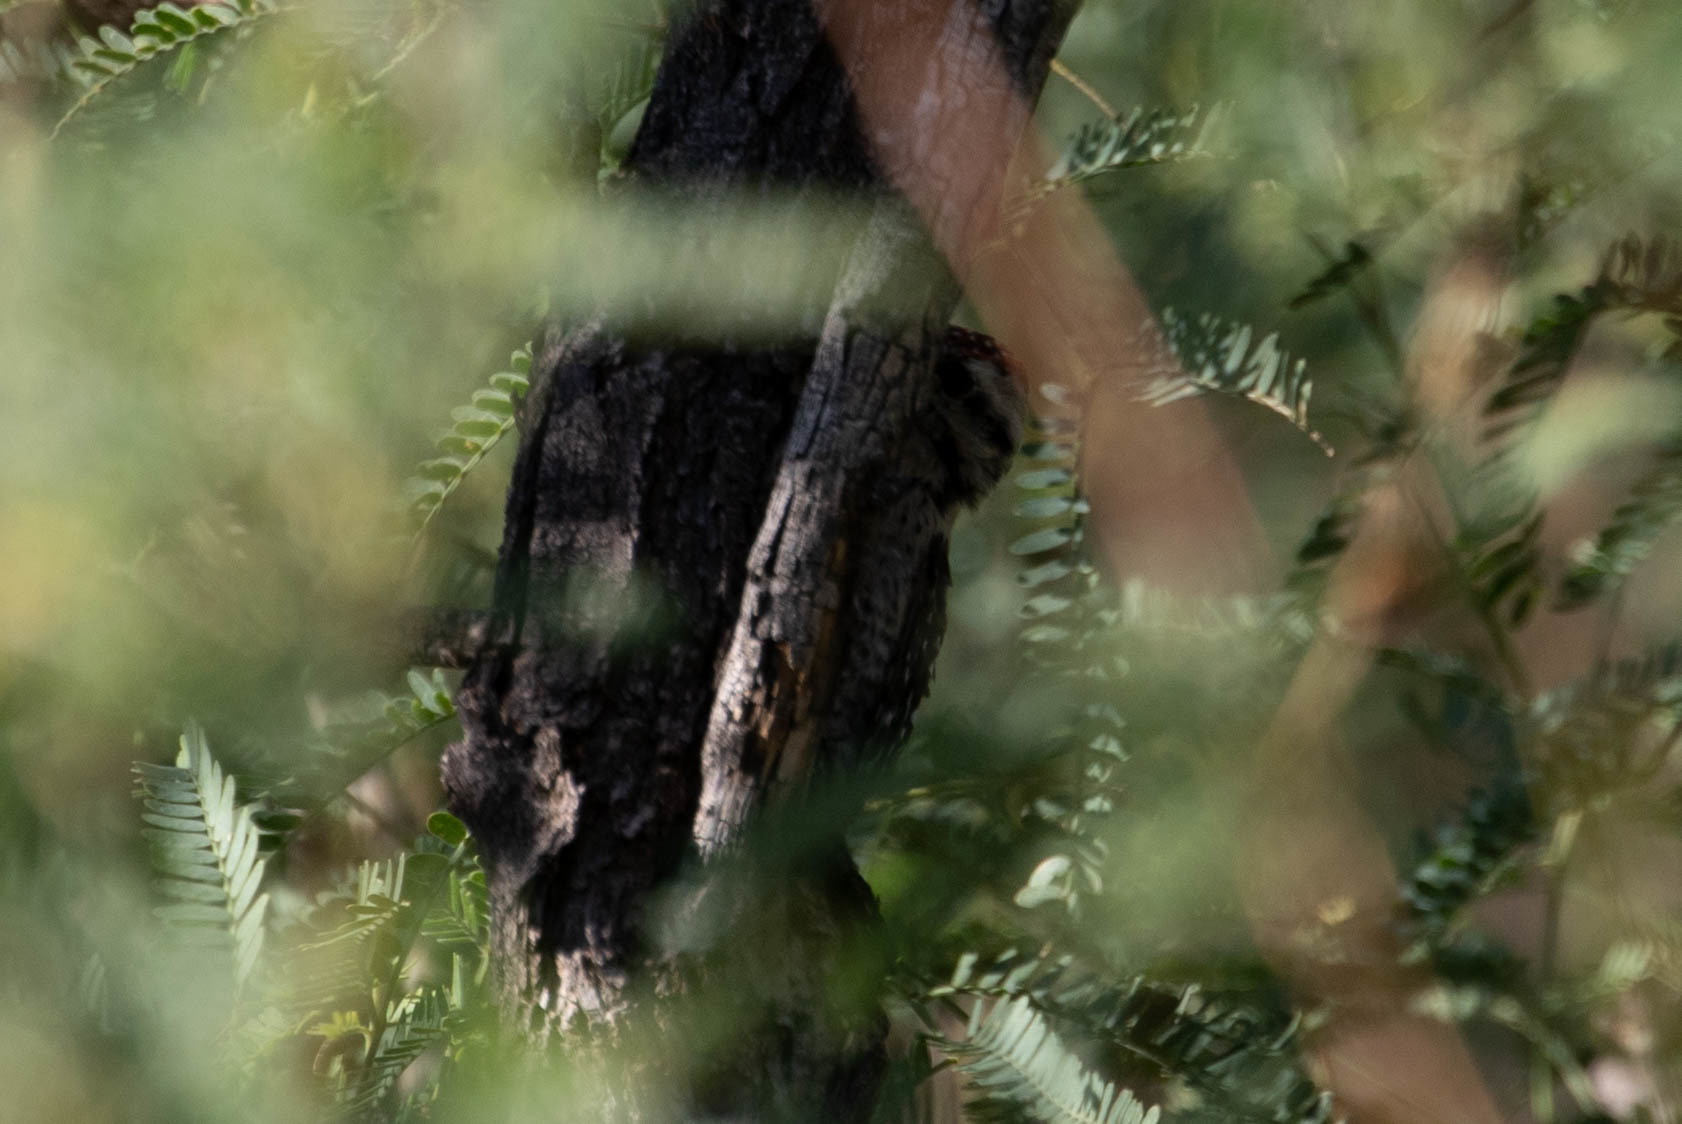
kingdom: Animalia
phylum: Chordata
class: Aves
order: Piciformes
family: Picidae
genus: Dryobates
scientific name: Dryobates scalaris
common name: Ladder-backed woodpecker
